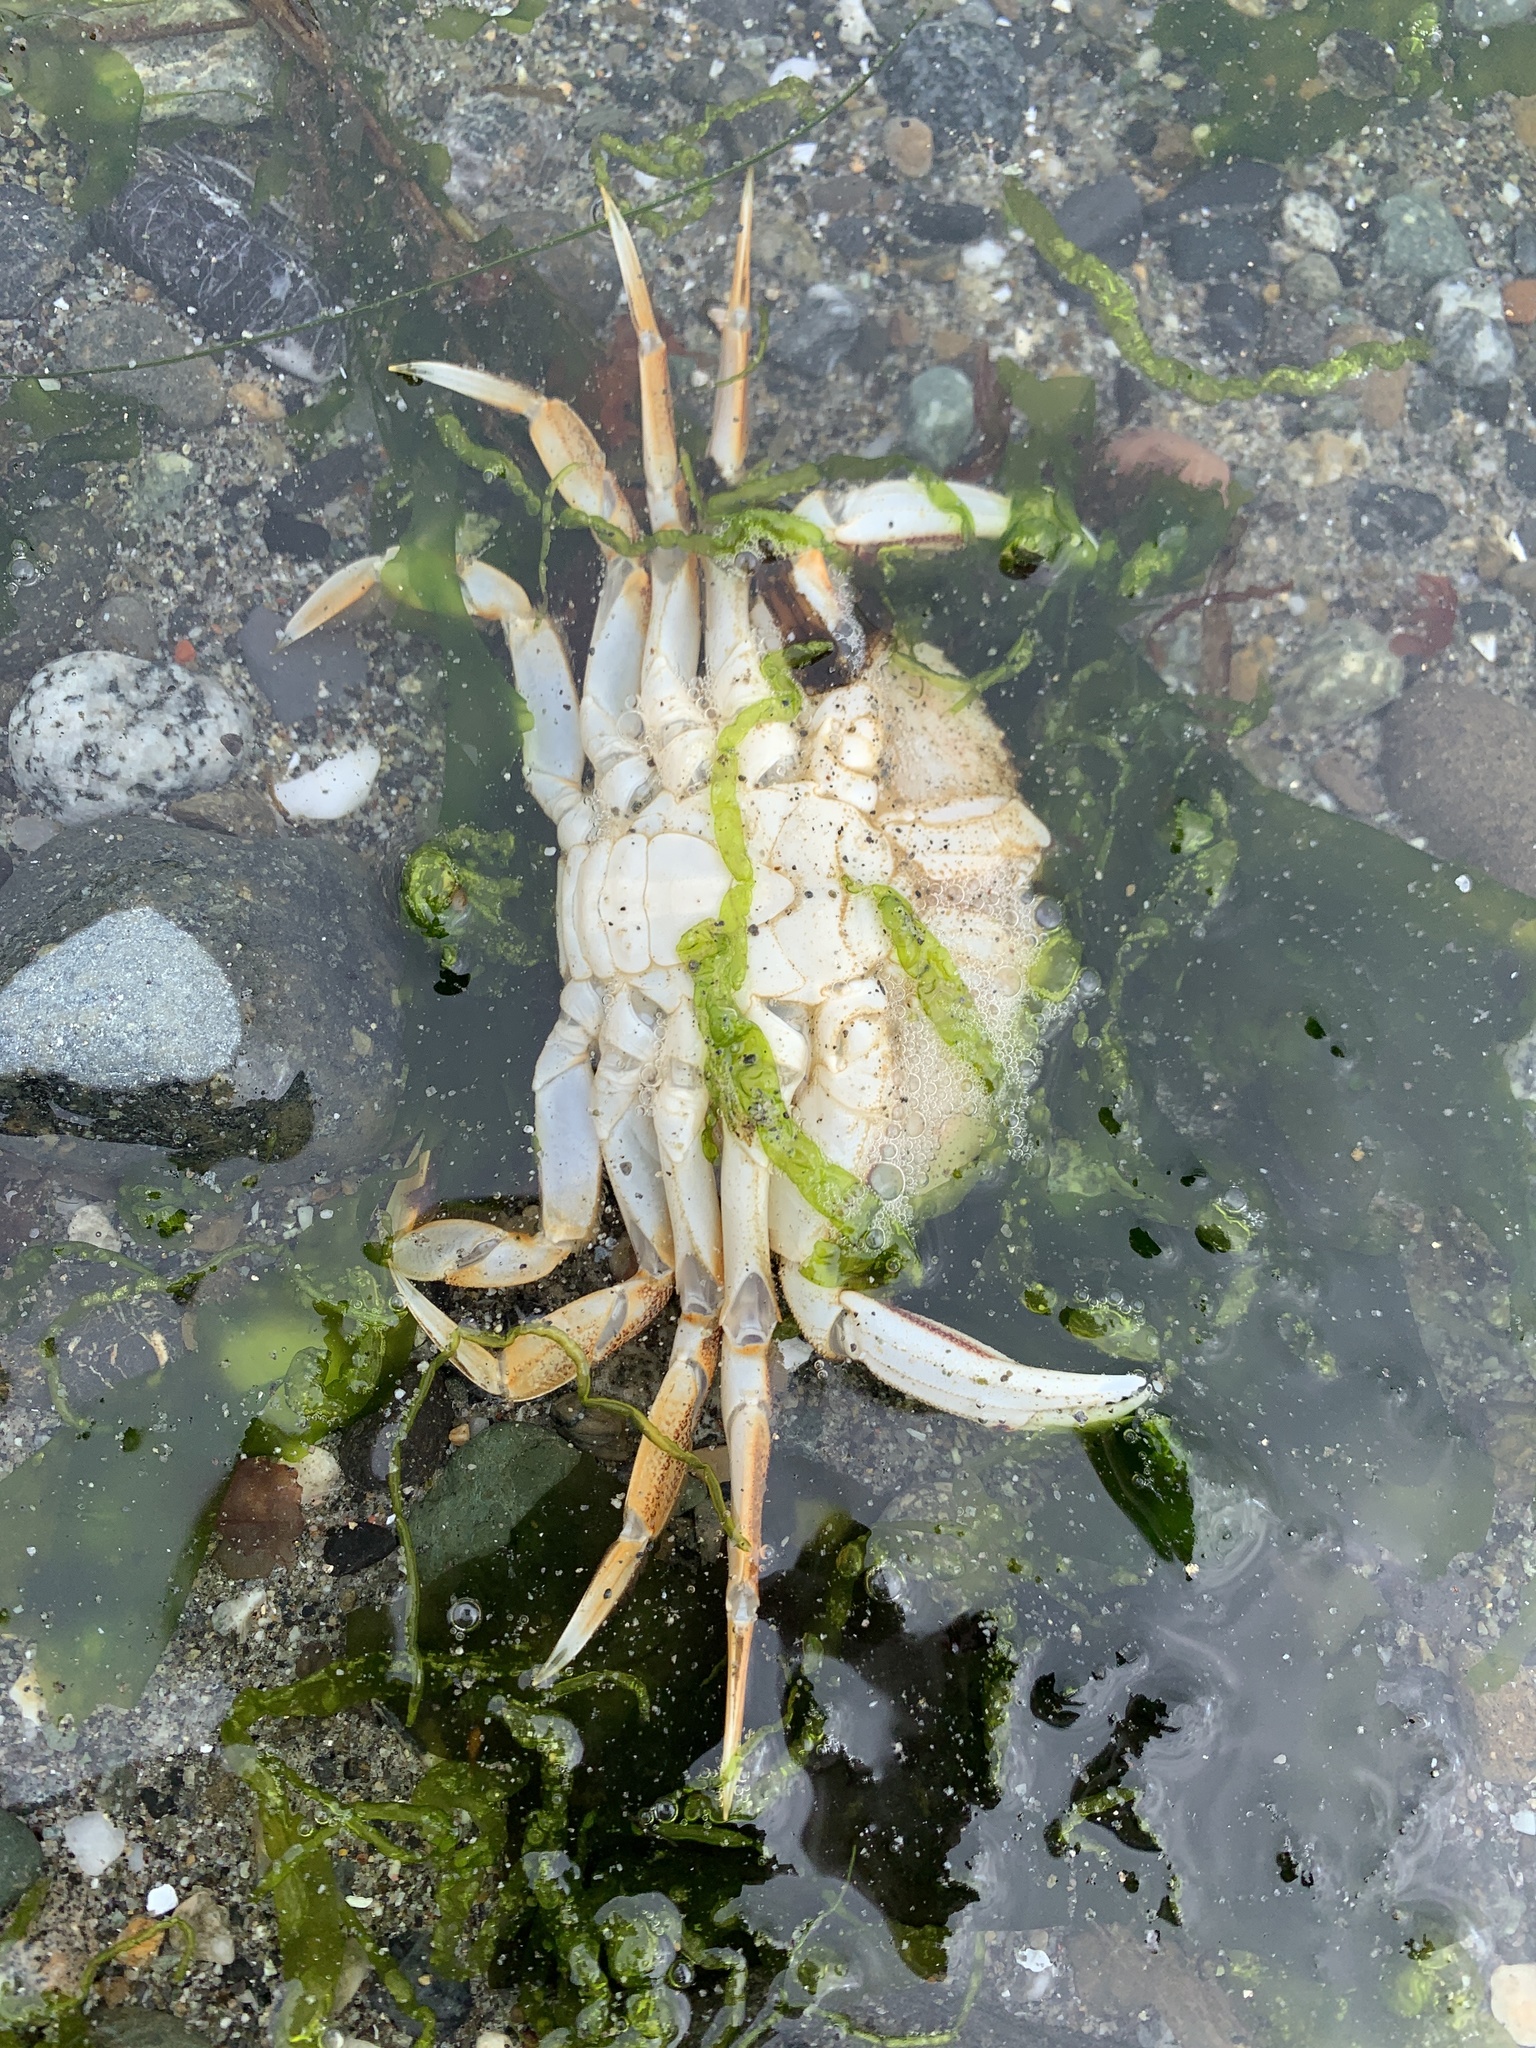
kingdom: Animalia
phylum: Arthropoda
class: Malacostraca
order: Decapoda
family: Cancridae
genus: Metacarcinus
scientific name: Metacarcinus magister
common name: Californian crab
